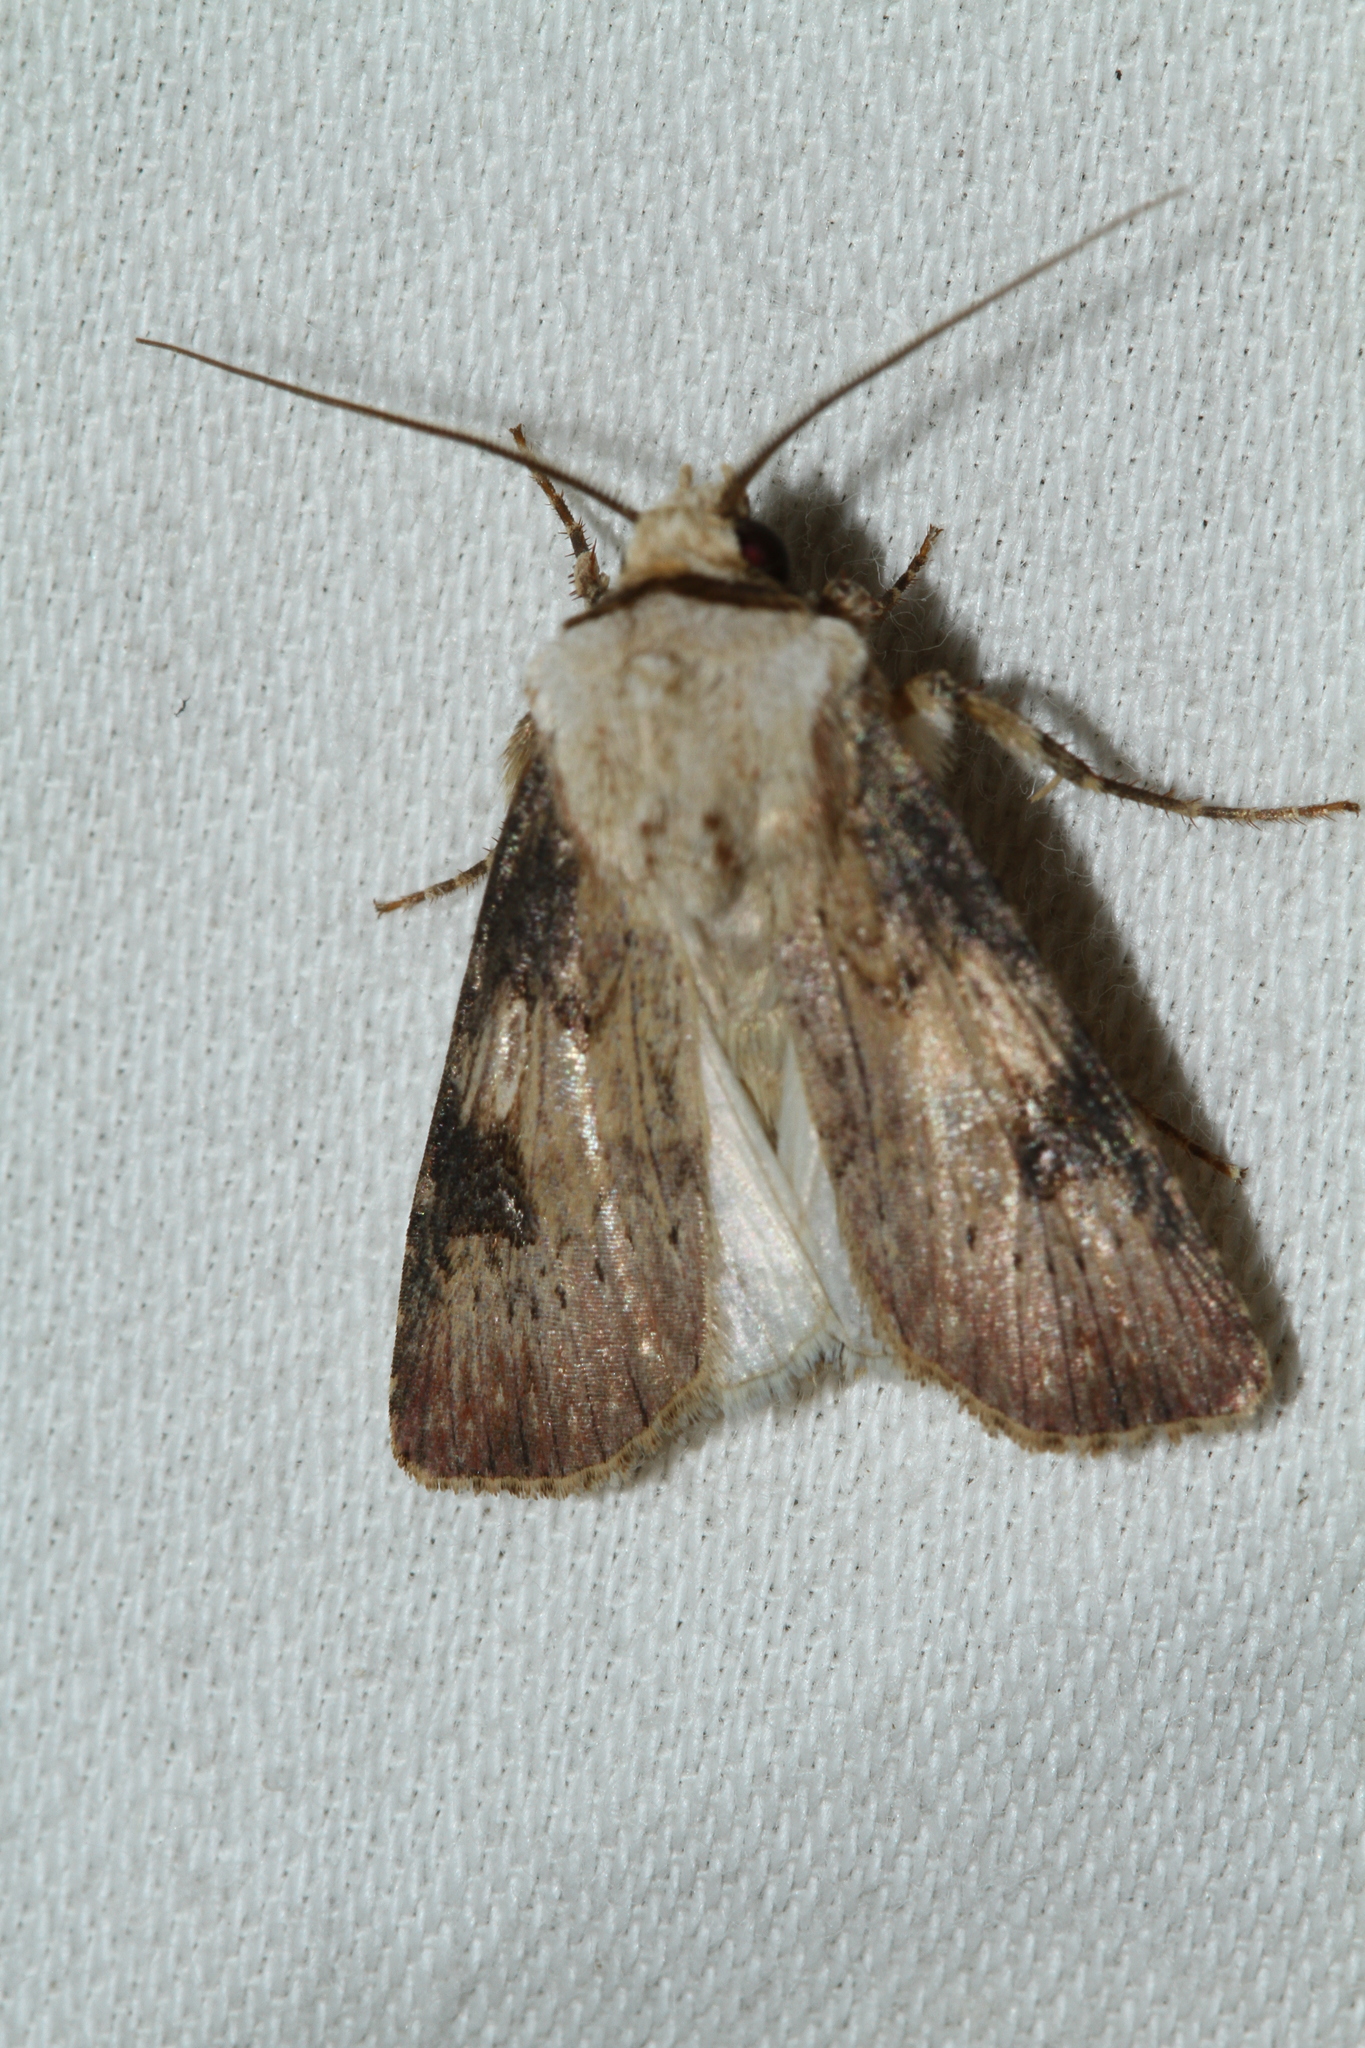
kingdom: Animalia
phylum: Arthropoda
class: Insecta
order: Lepidoptera
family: Noctuidae
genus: Agrotis
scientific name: Agrotis puta
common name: Shuttle-shaped dart
